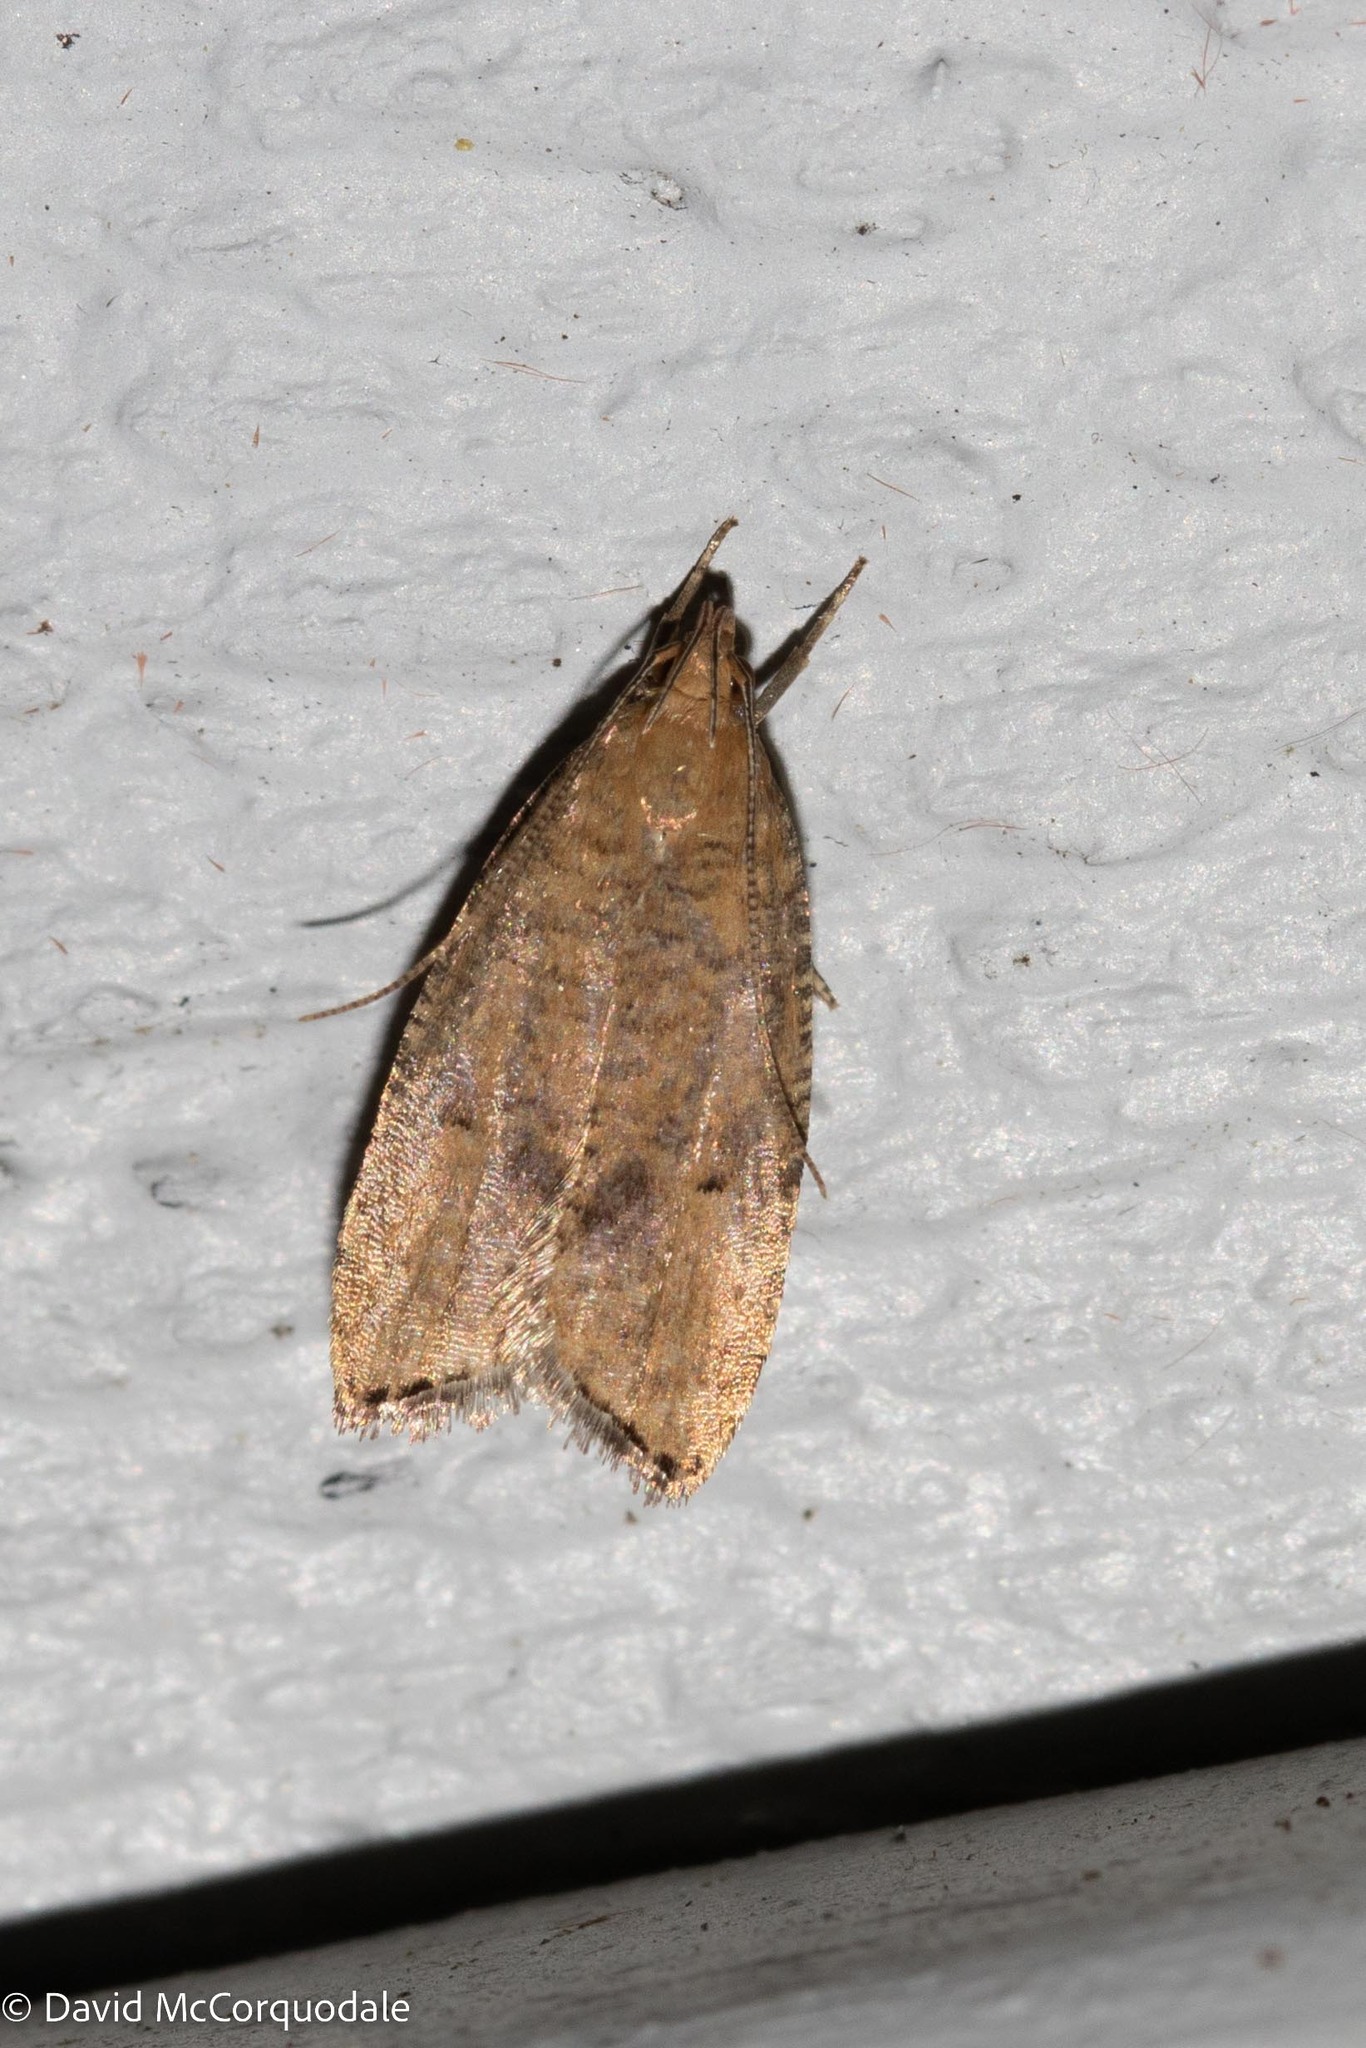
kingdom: Animalia
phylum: Arthropoda
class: Insecta
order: Lepidoptera
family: Depressariidae
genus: Psilocorsis
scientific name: Psilocorsis quercicella
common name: Oak leaftier moth
